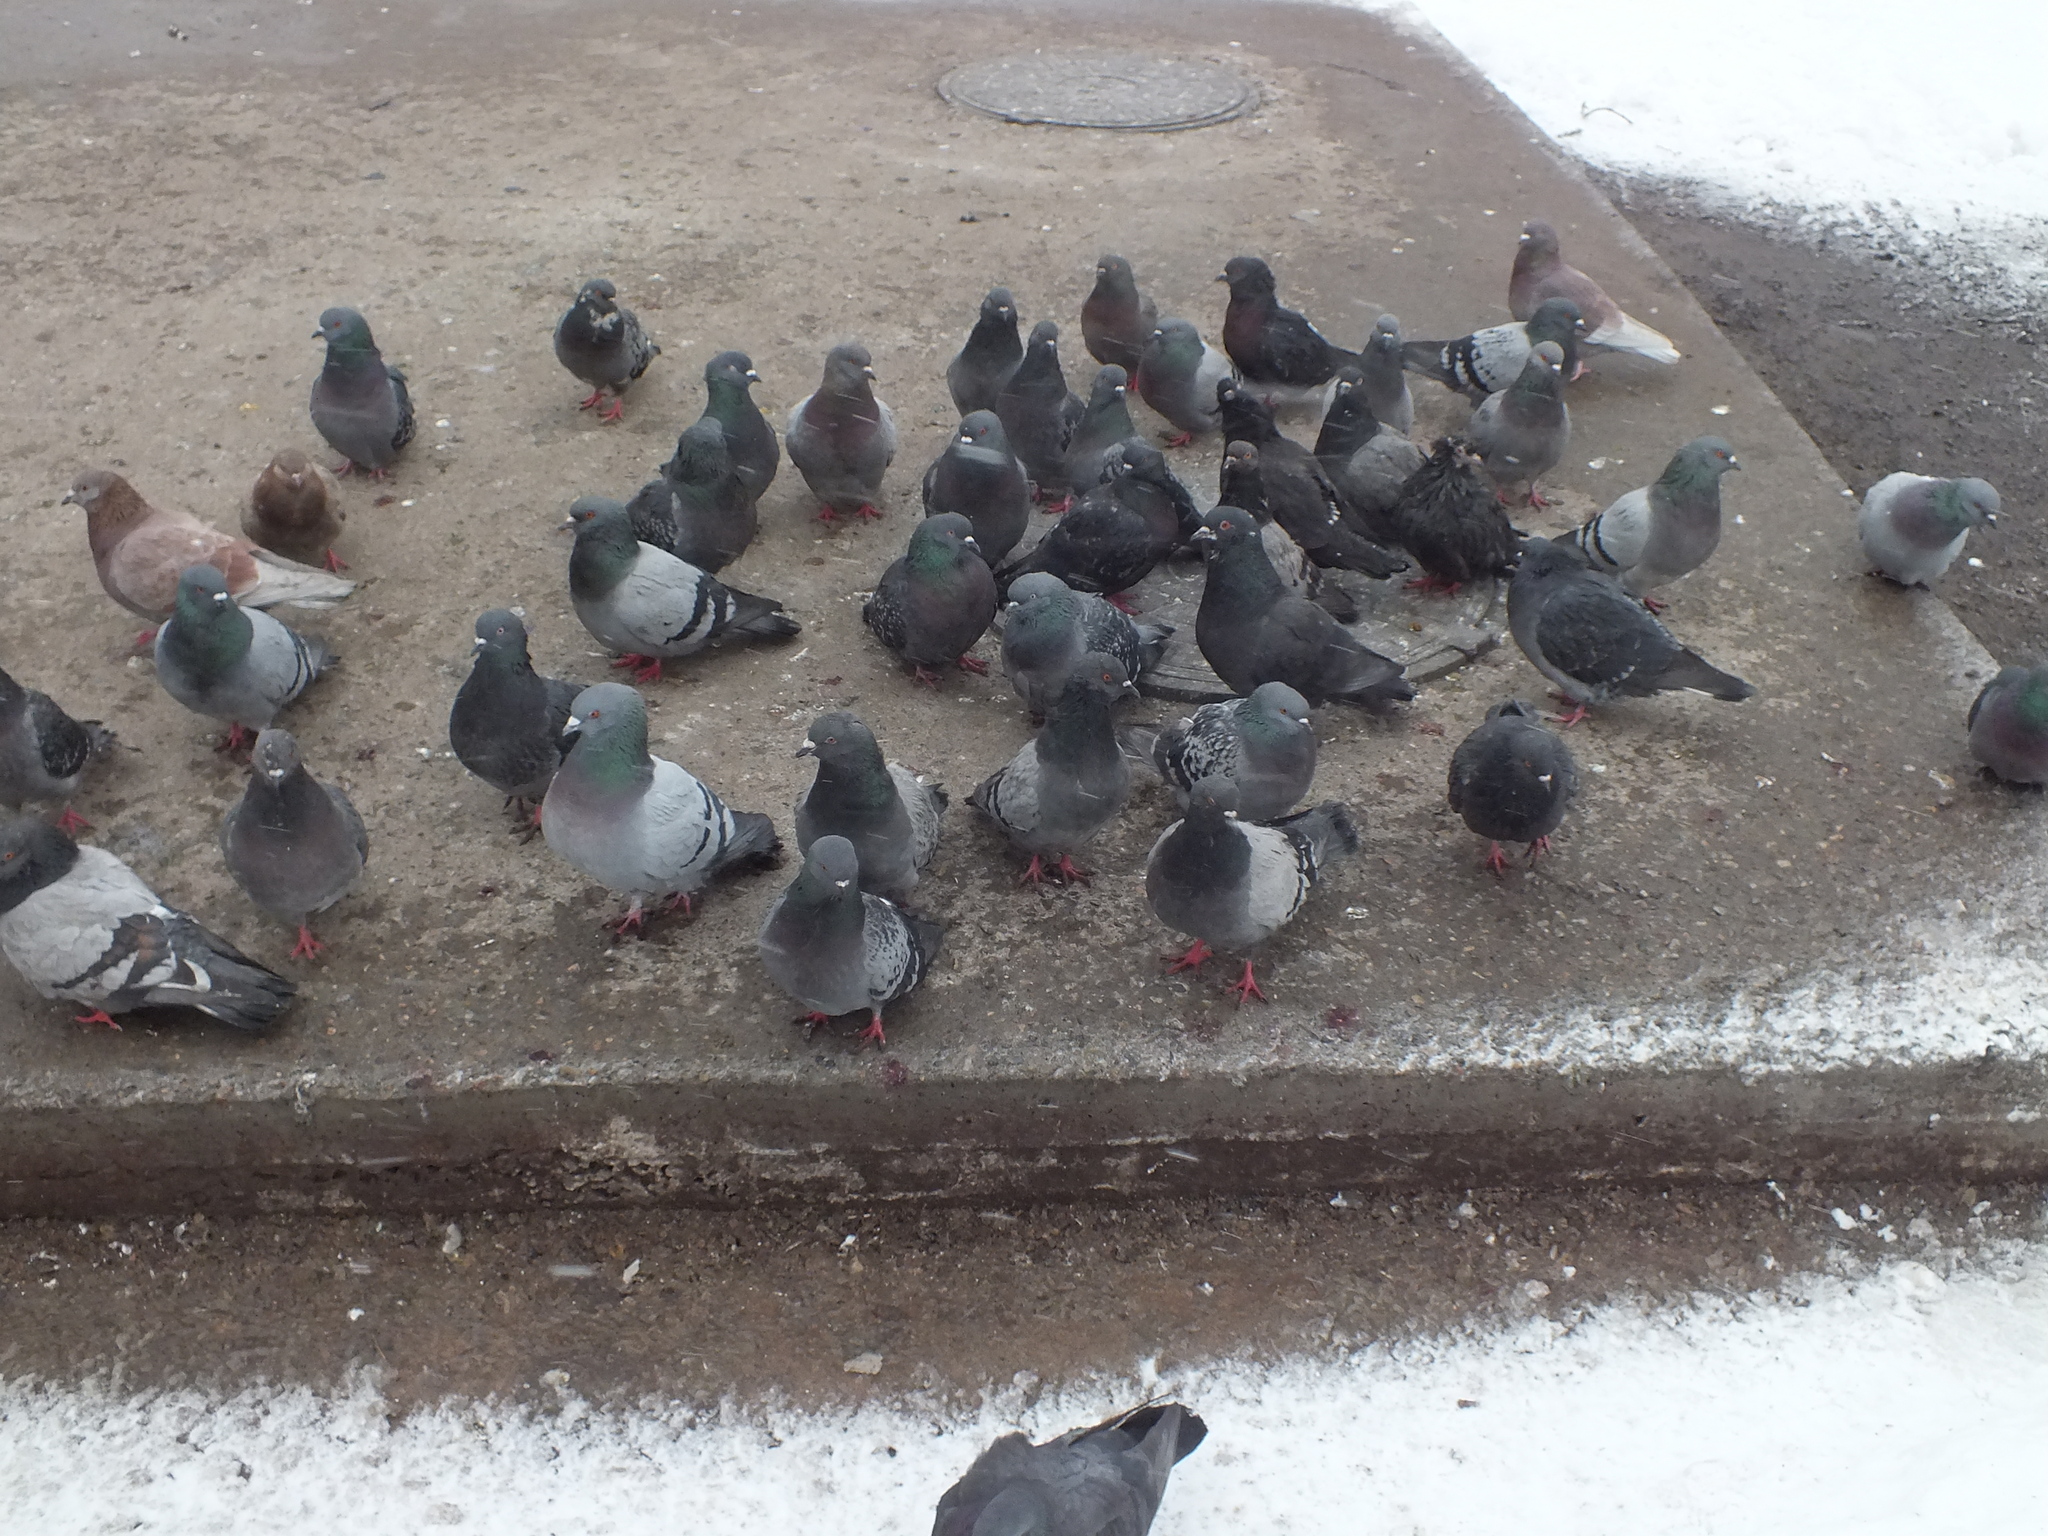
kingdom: Animalia
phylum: Chordata
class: Aves
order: Columbiformes
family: Columbidae
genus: Columba
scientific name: Columba livia
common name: Rock pigeon
